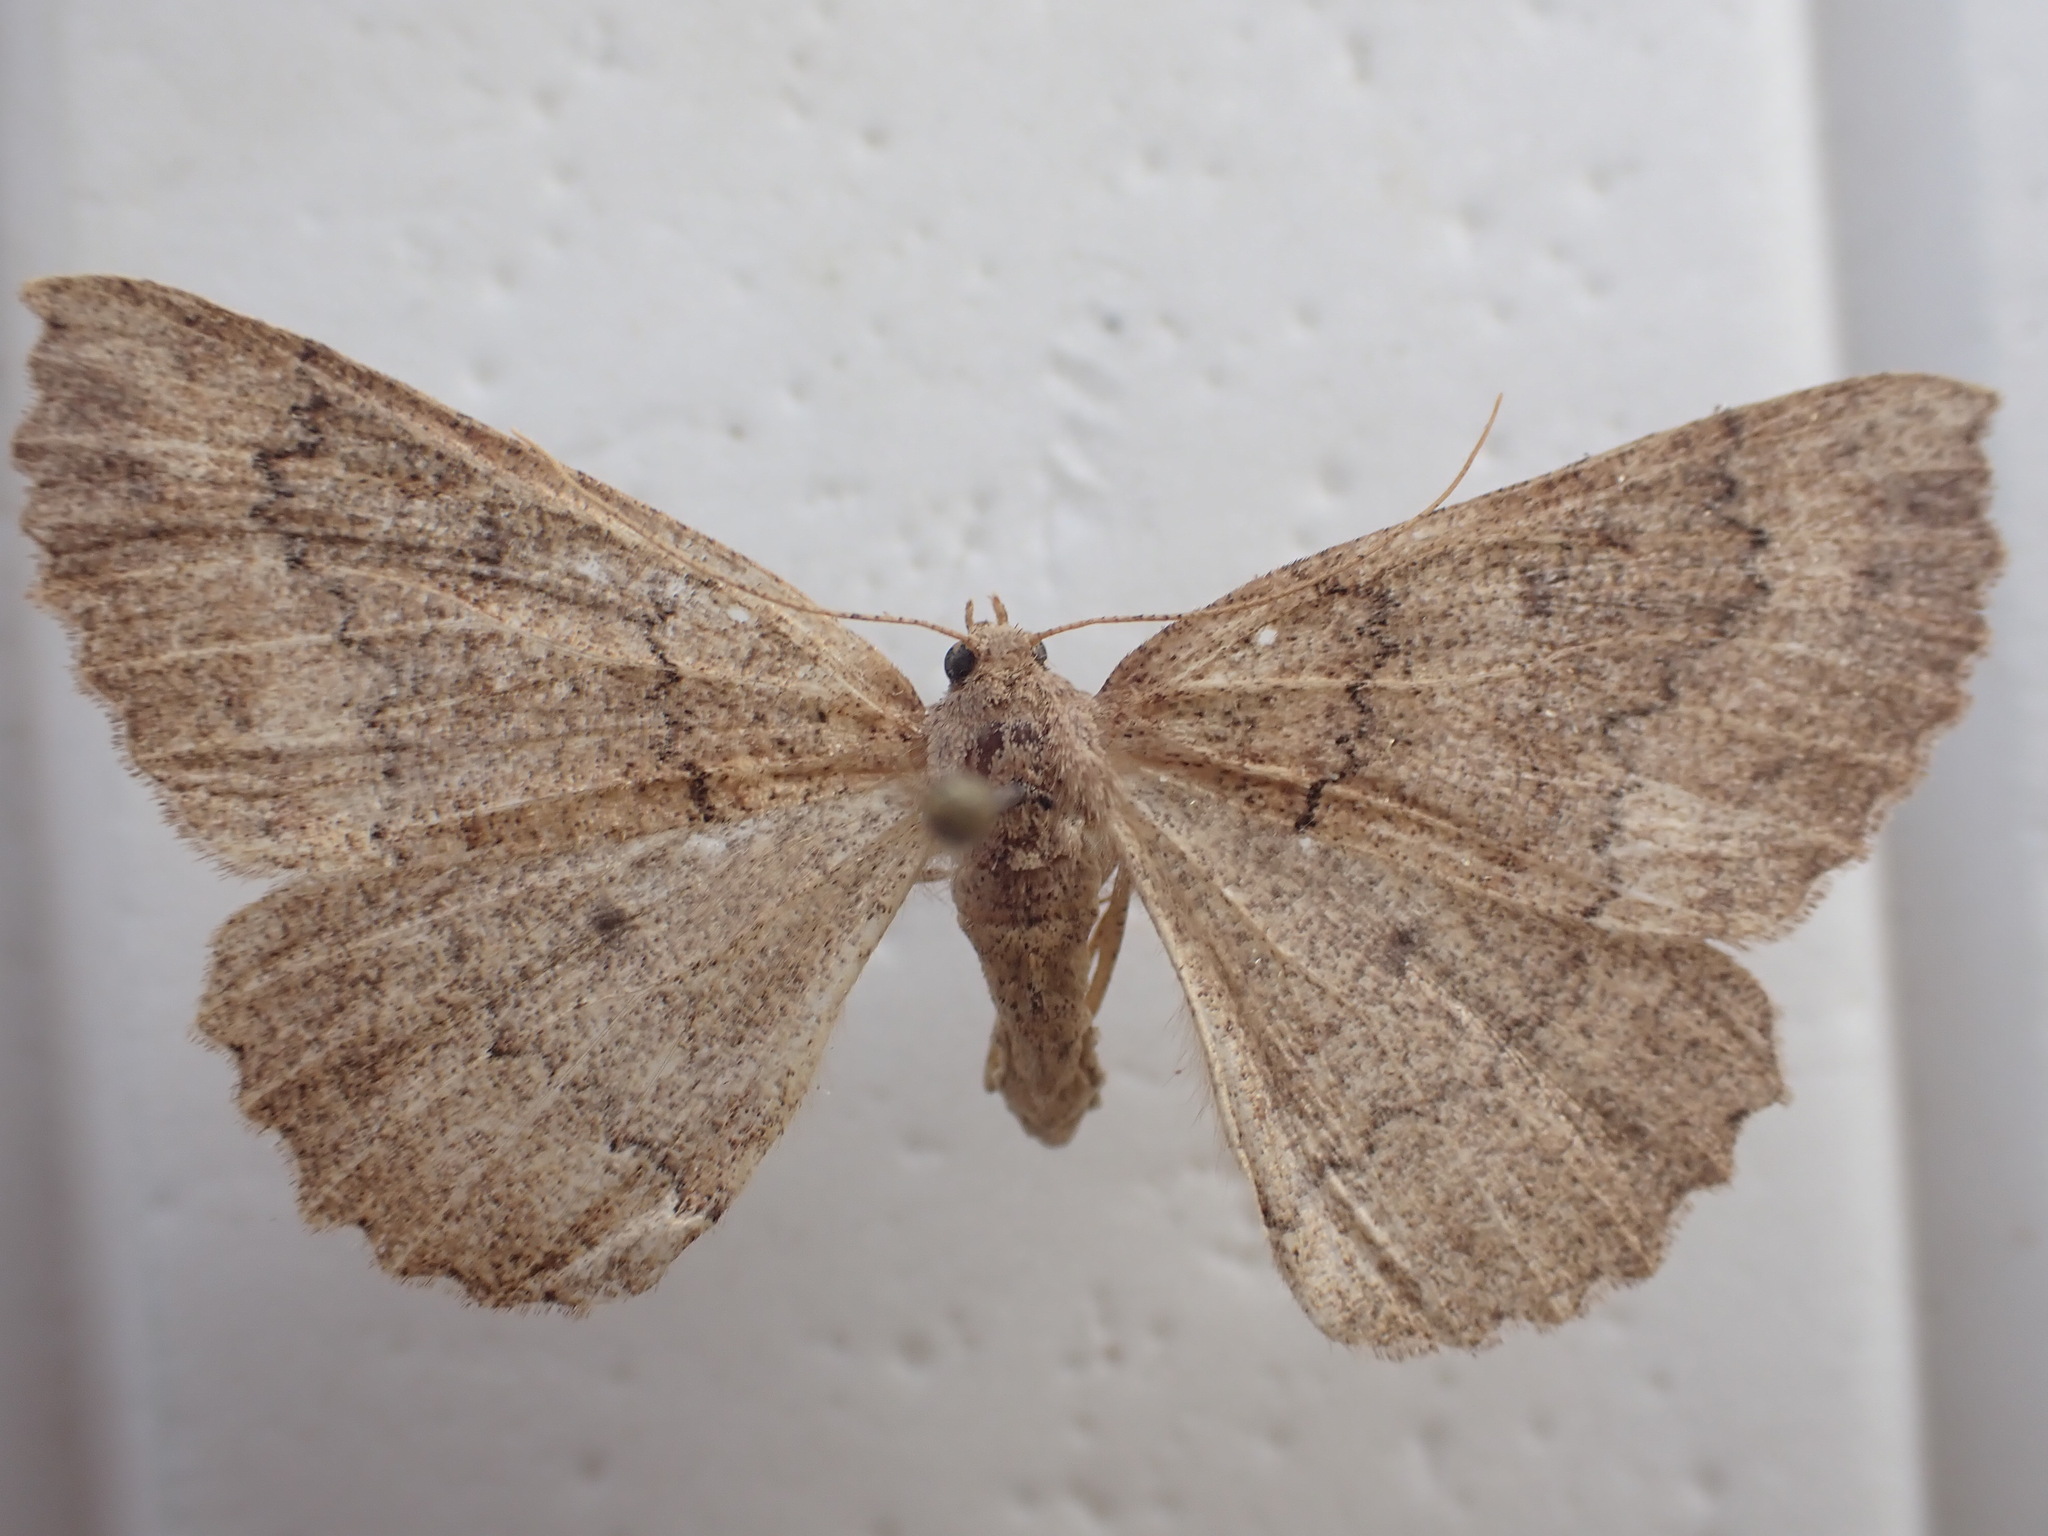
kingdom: Animalia
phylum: Arthropoda
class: Insecta
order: Lepidoptera
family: Geometridae
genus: Cleora
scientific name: Cleora scriptaria
